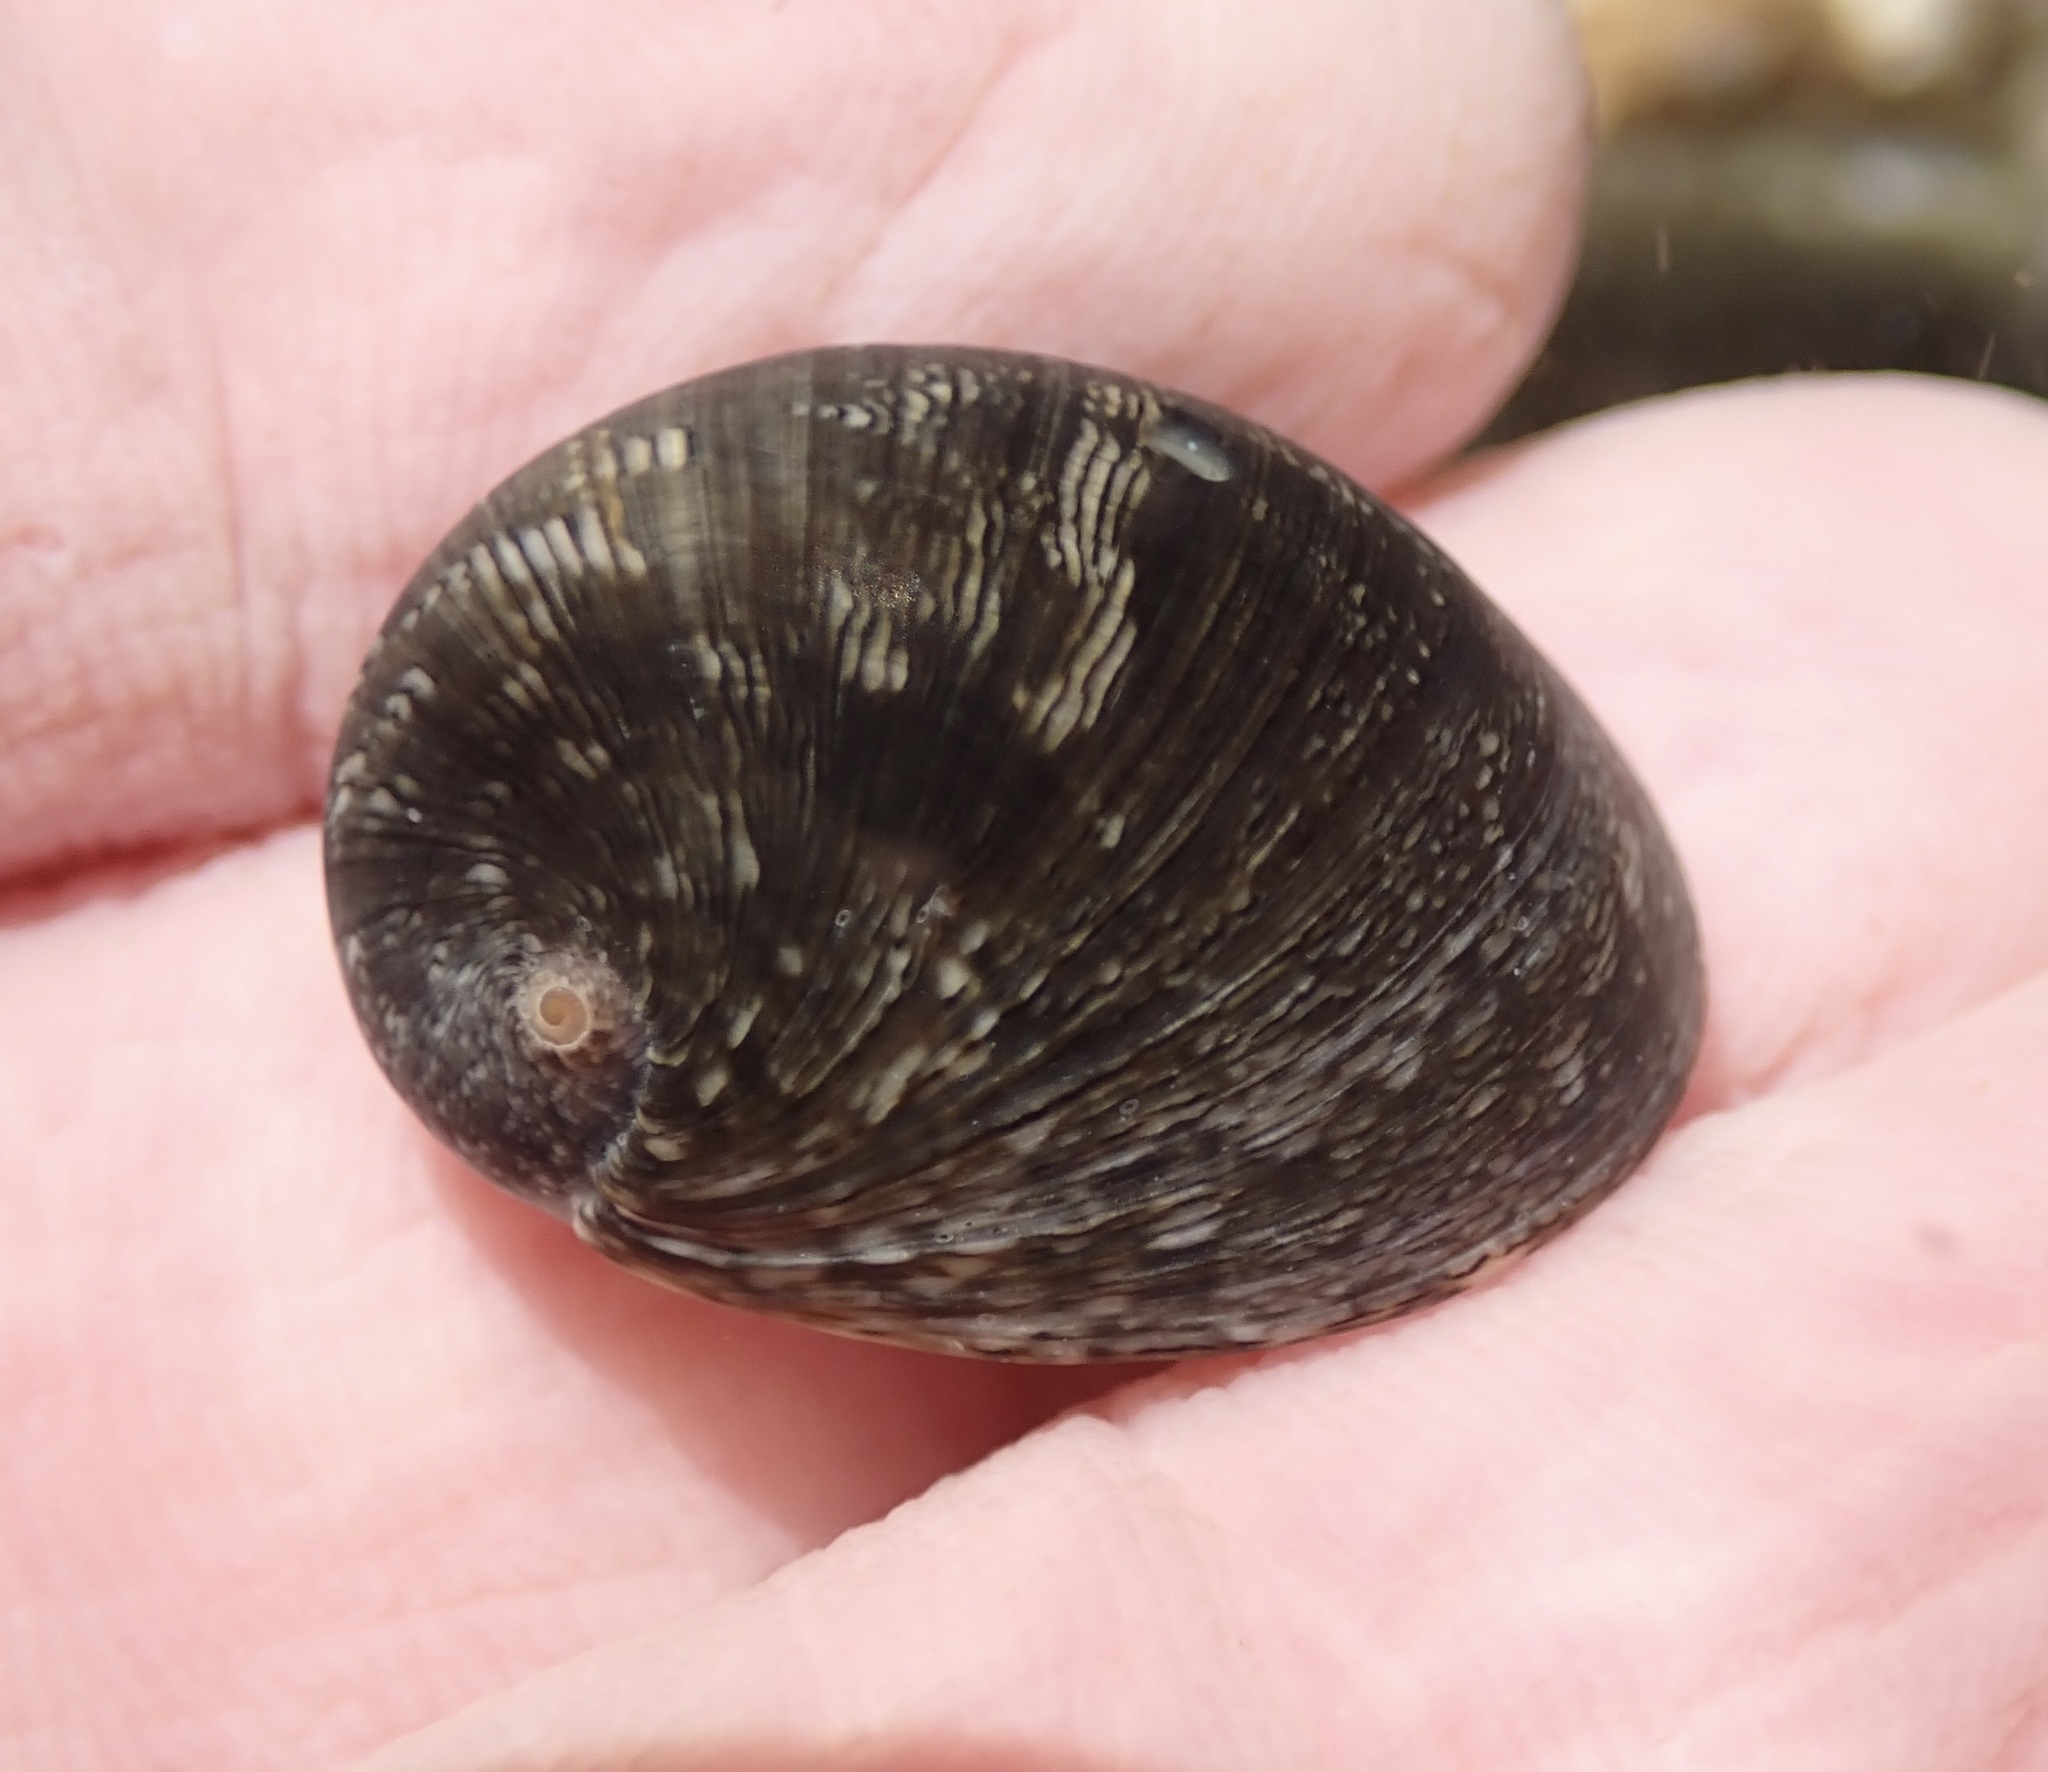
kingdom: Animalia
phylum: Mollusca
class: Gastropoda
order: Cycloneritida
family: Neritidae
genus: Nerita
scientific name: Nerita polita
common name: Polished nerite
